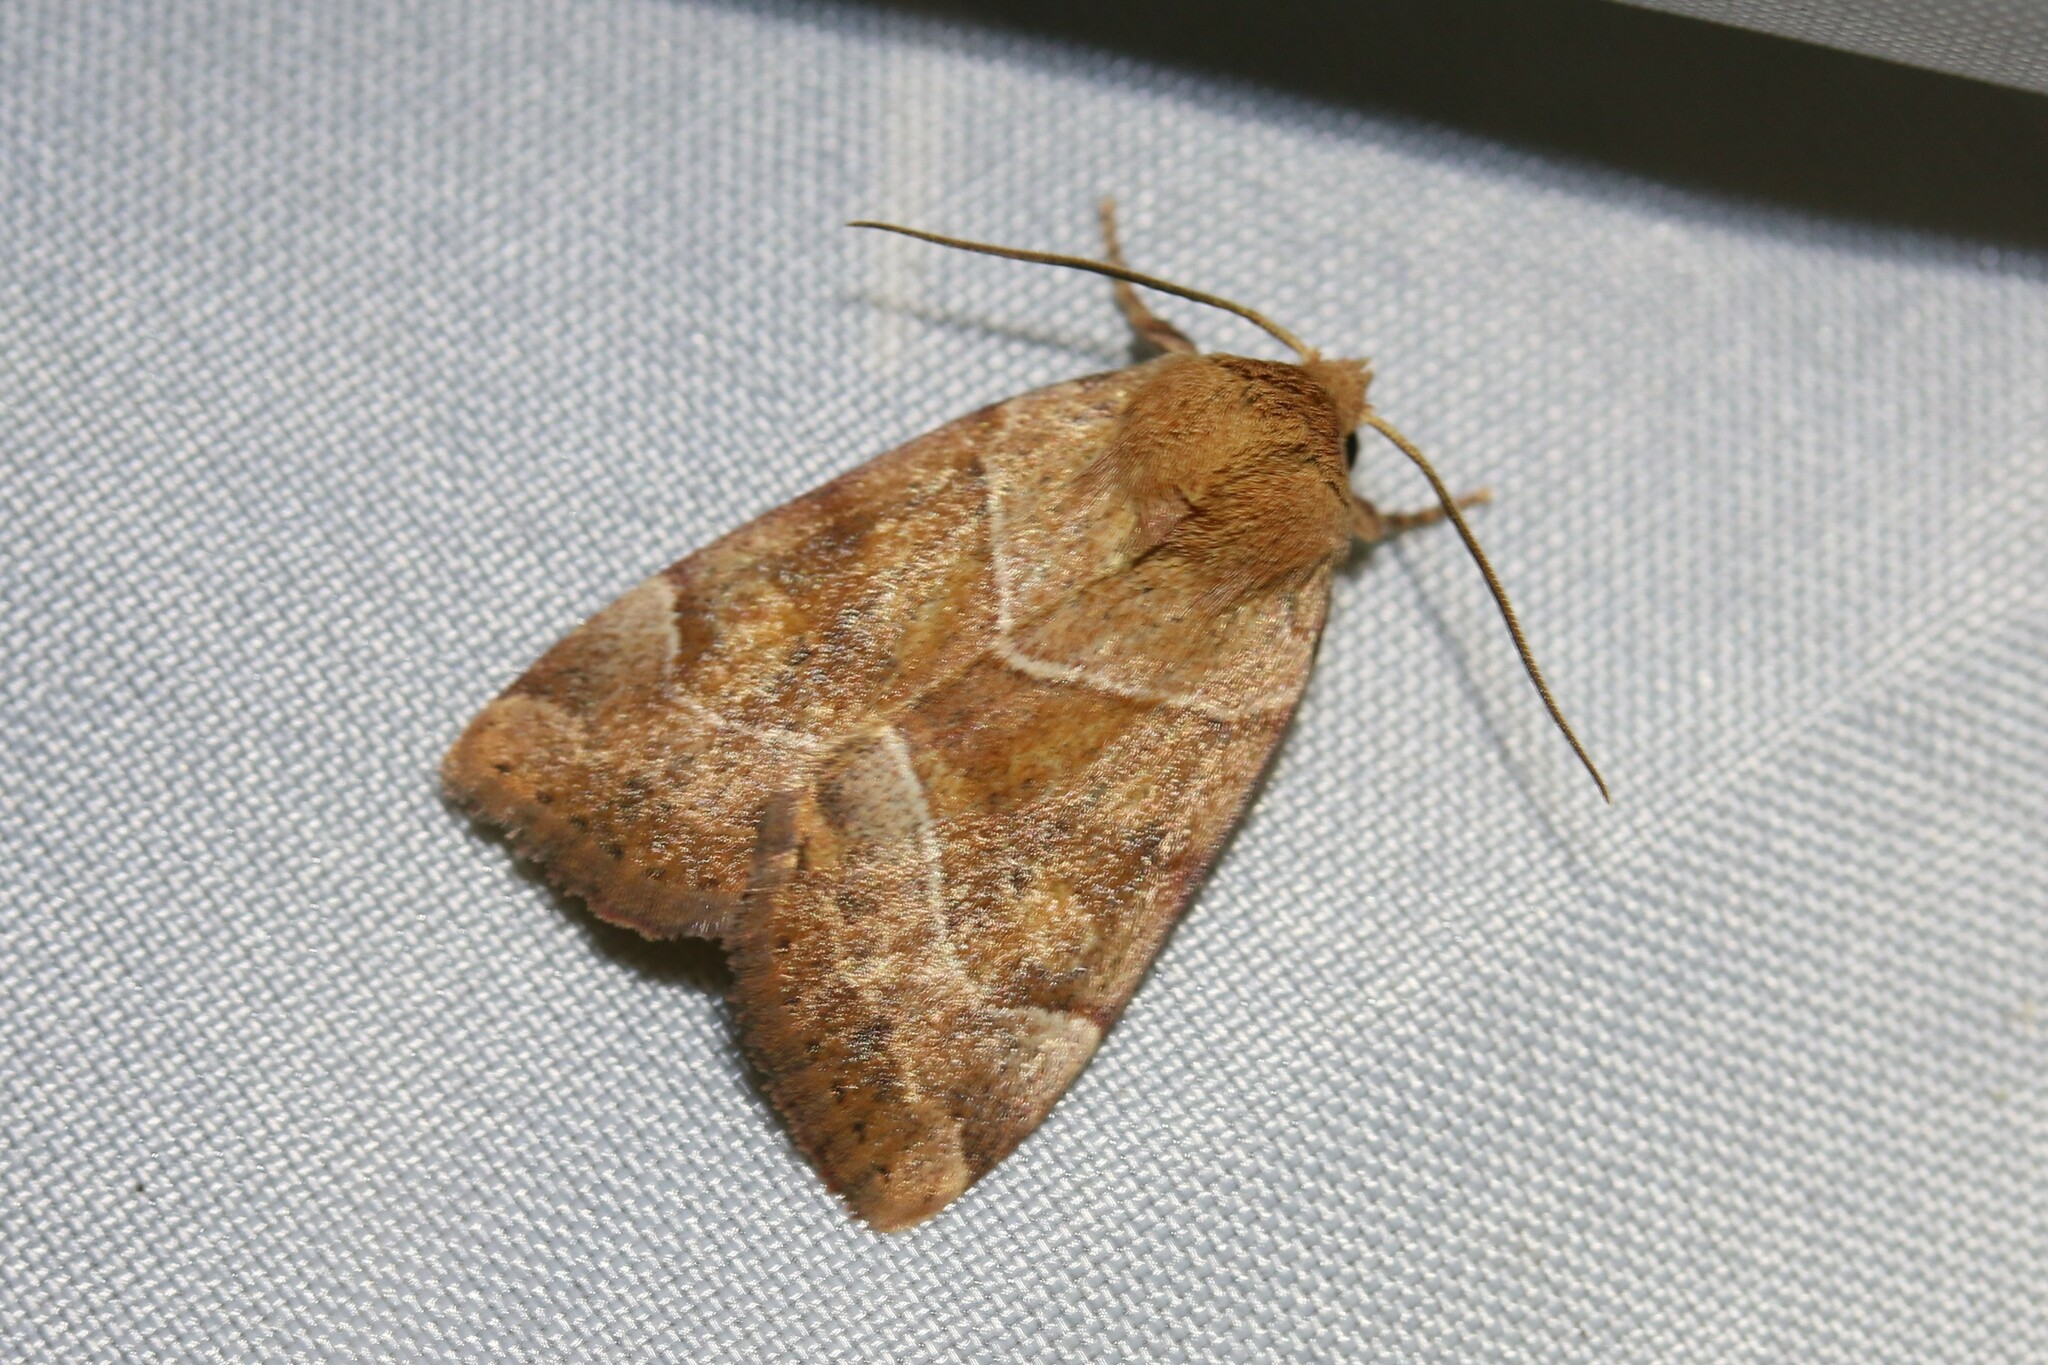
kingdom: Animalia
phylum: Arthropoda
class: Insecta
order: Lepidoptera
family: Noctuidae
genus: Cosmia
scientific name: Cosmia trapezina
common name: Dun-bar
